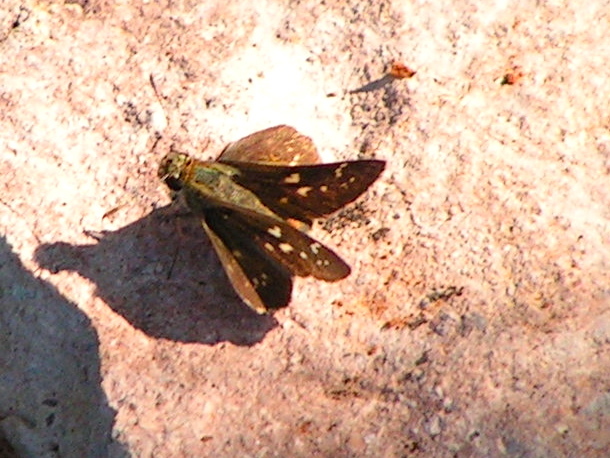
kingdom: Animalia
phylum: Arthropoda
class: Insecta
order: Lepidoptera
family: Hesperiidae
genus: Mastor
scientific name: Mastor tolteca
